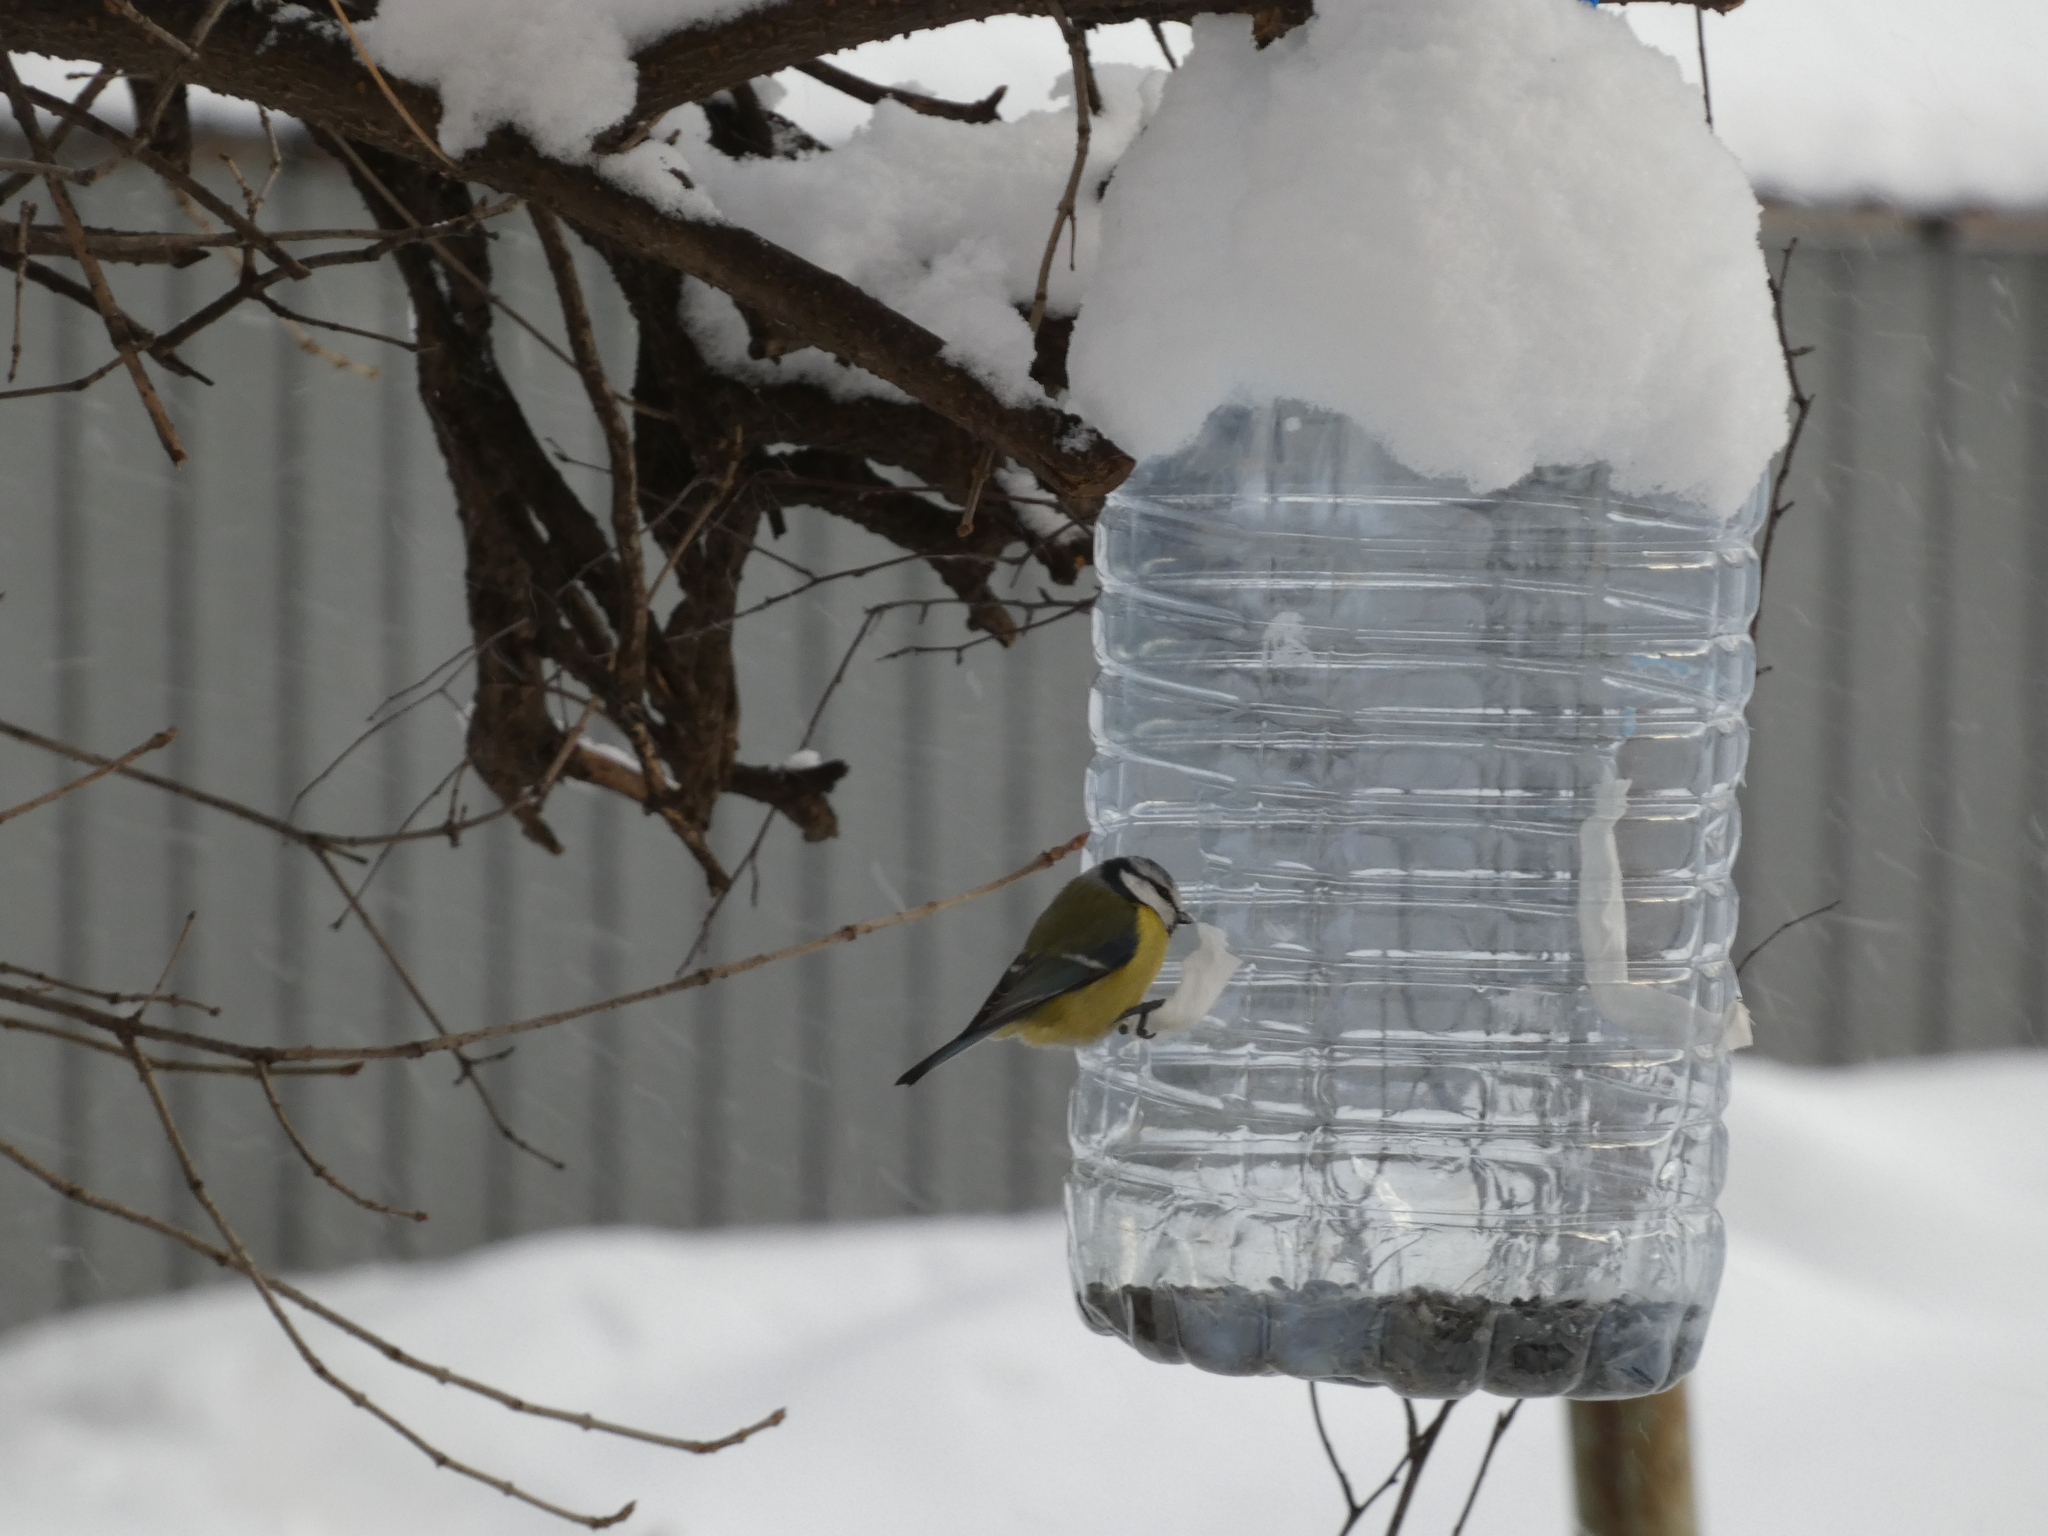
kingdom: Animalia
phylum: Chordata
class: Aves
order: Passeriformes
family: Paridae
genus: Cyanistes
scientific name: Cyanistes caeruleus
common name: Eurasian blue tit
